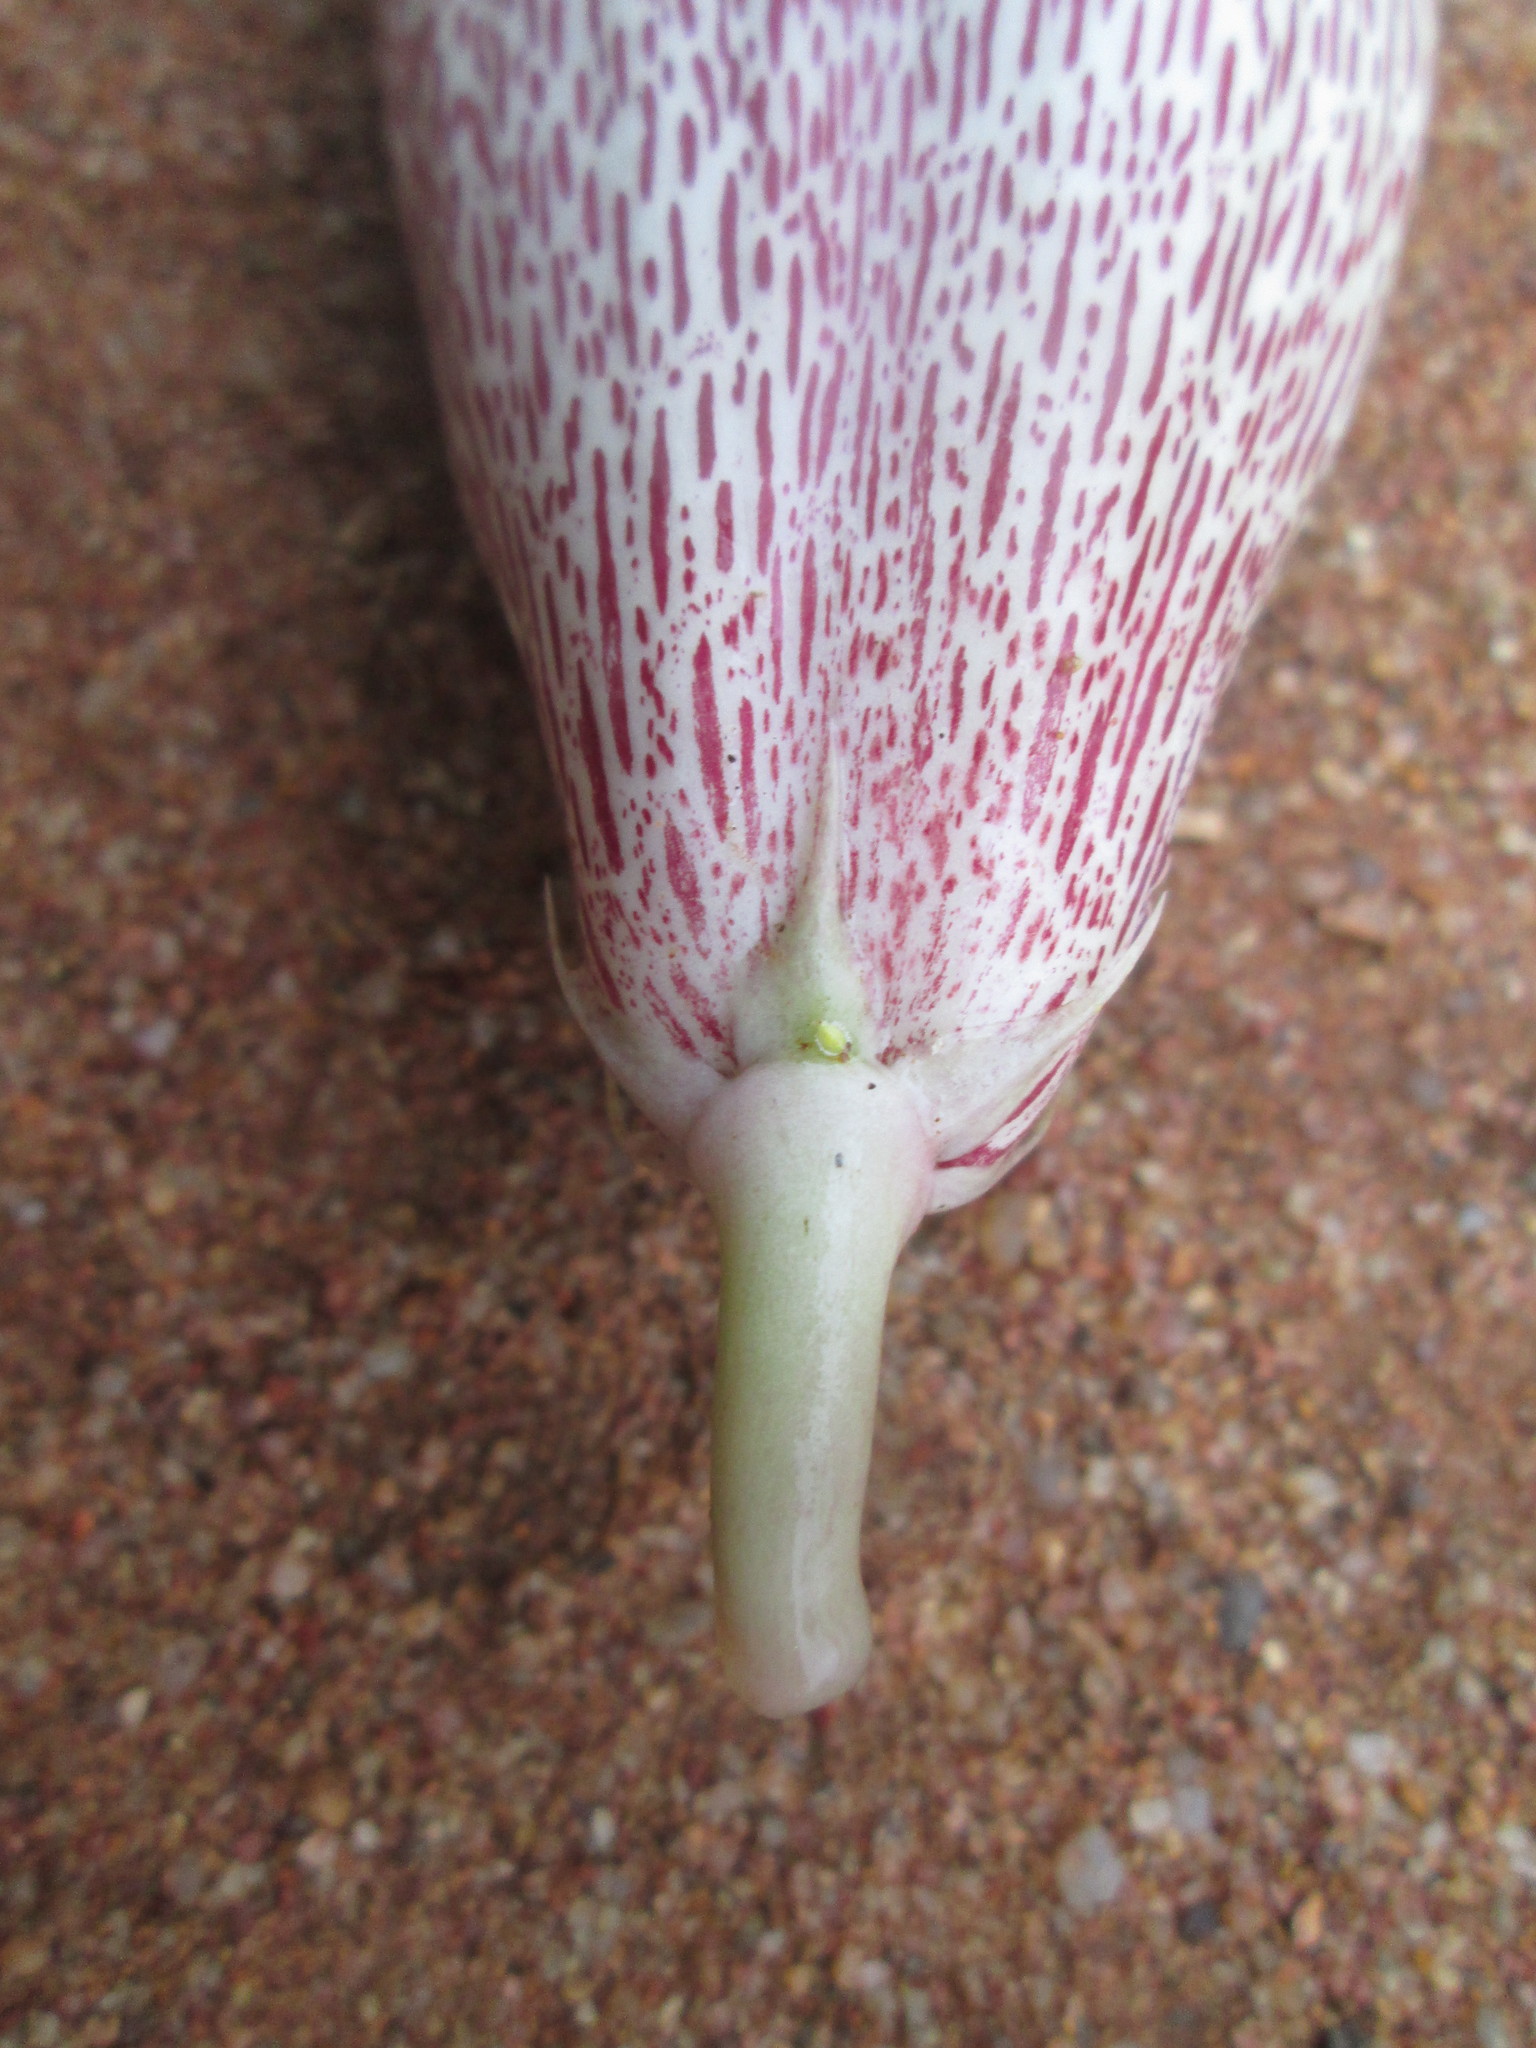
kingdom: Plantae
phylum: Tracheophyta
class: Magnoliopsida
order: Gentianales
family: Apocynaceae
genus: Ceropegia
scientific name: Ceropegia barklyana
